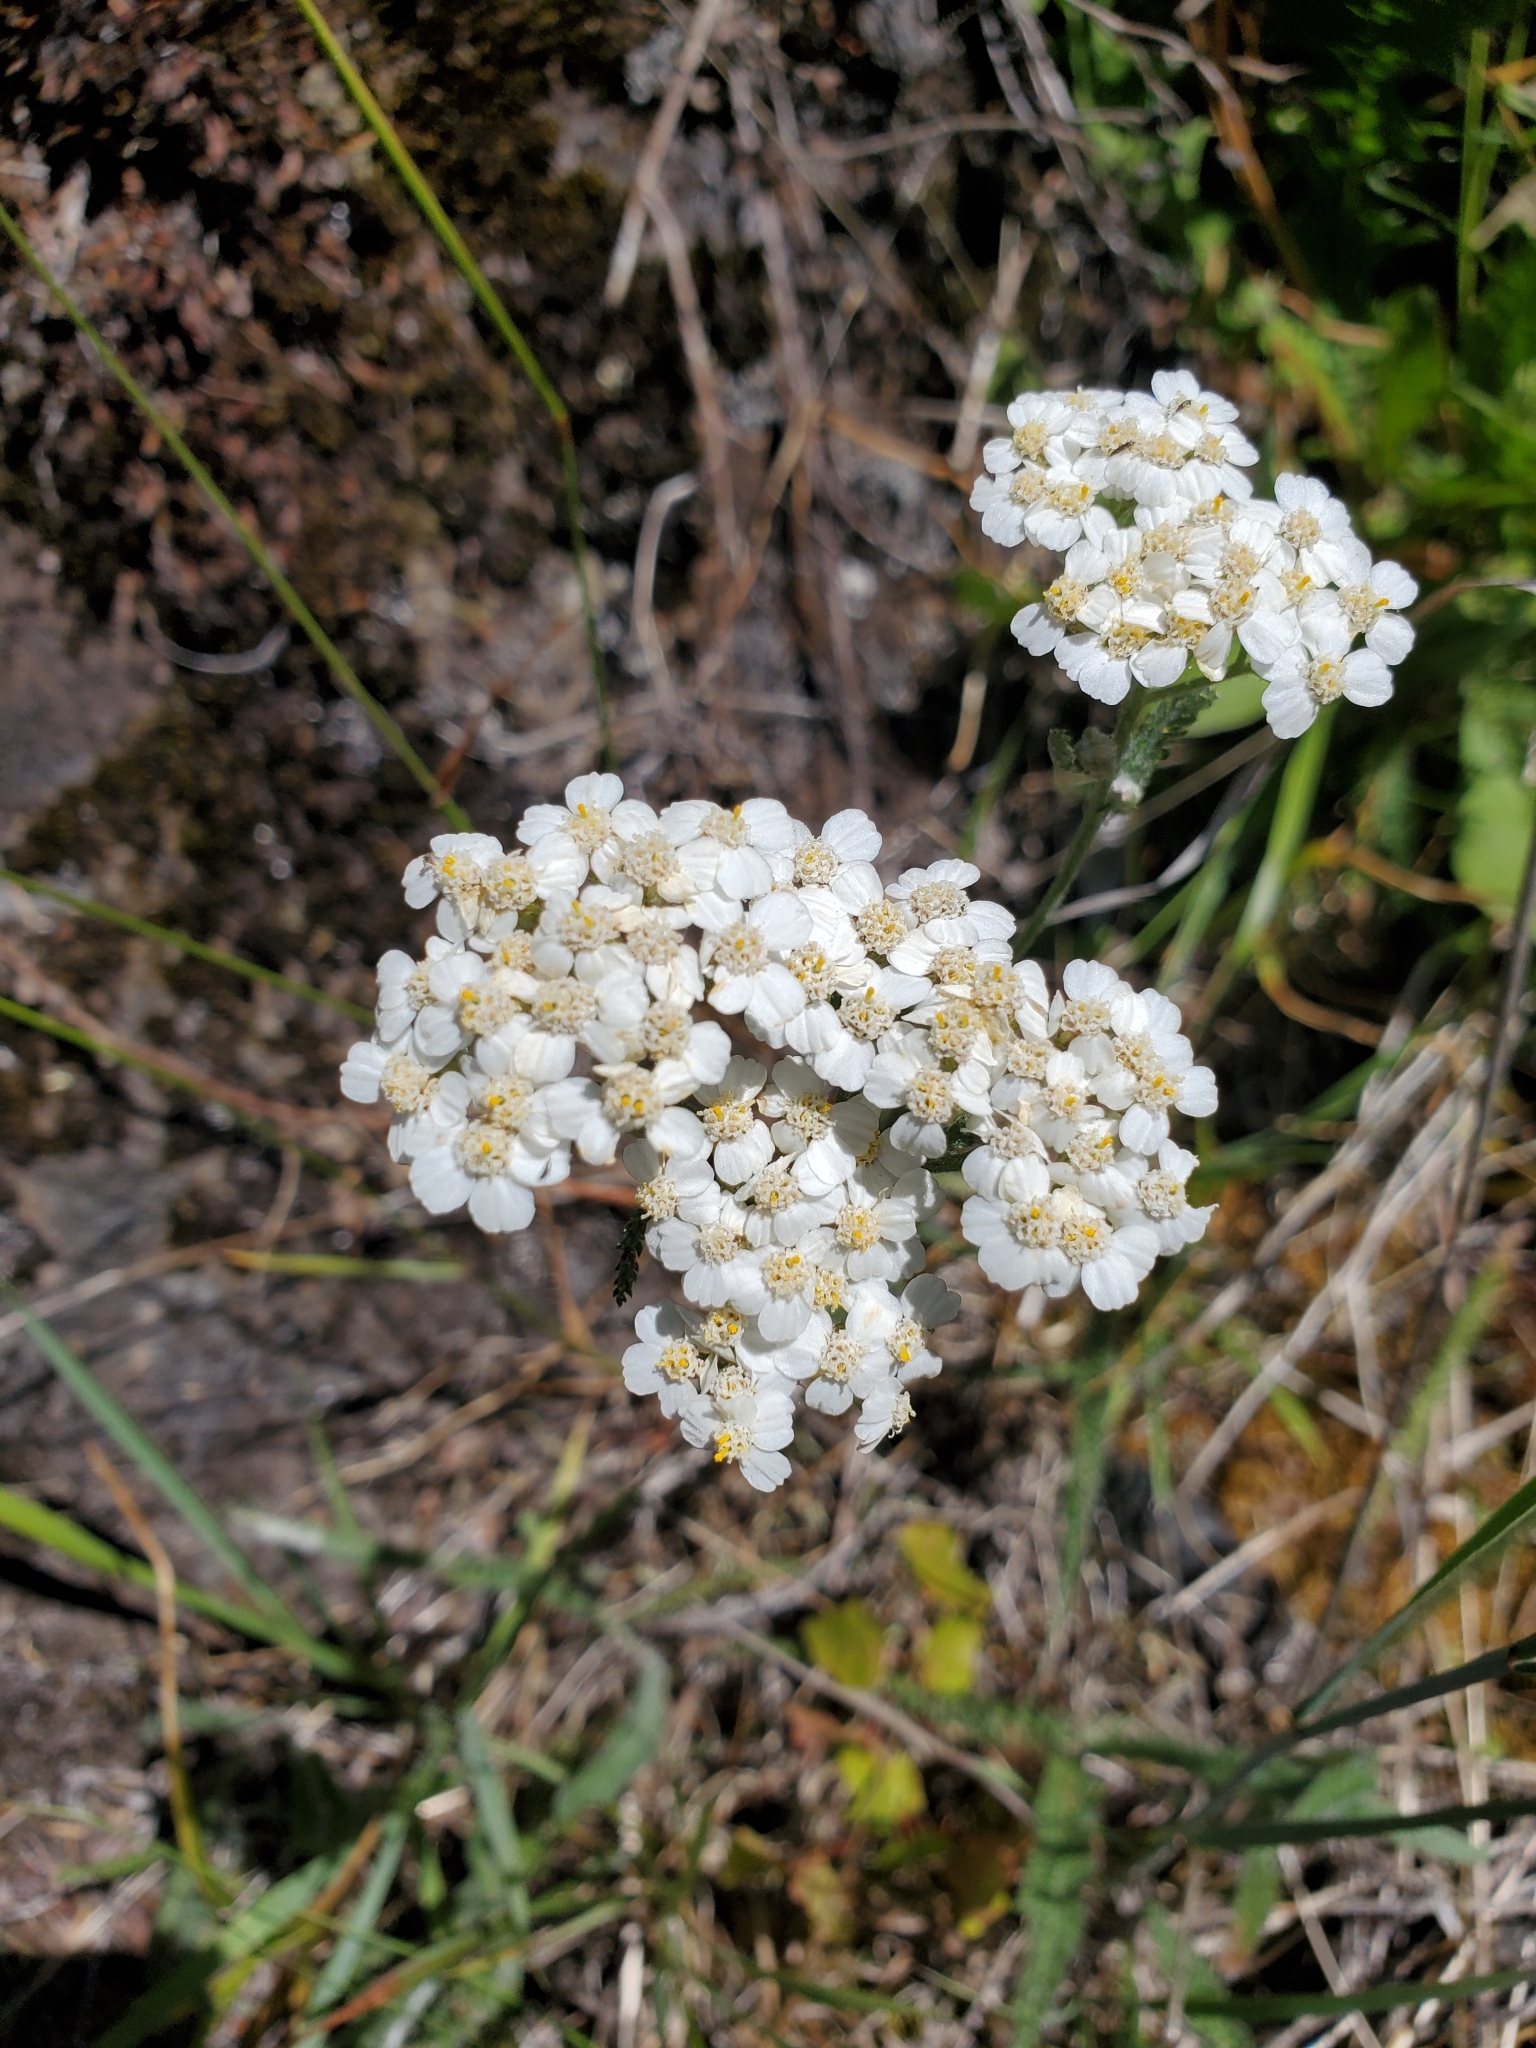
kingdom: Plantae
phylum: Tracheophyta
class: Magnoliopsida
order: Asterales
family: Asteraceae
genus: Achillea
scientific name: Achillea millefolium
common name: Yarrow
